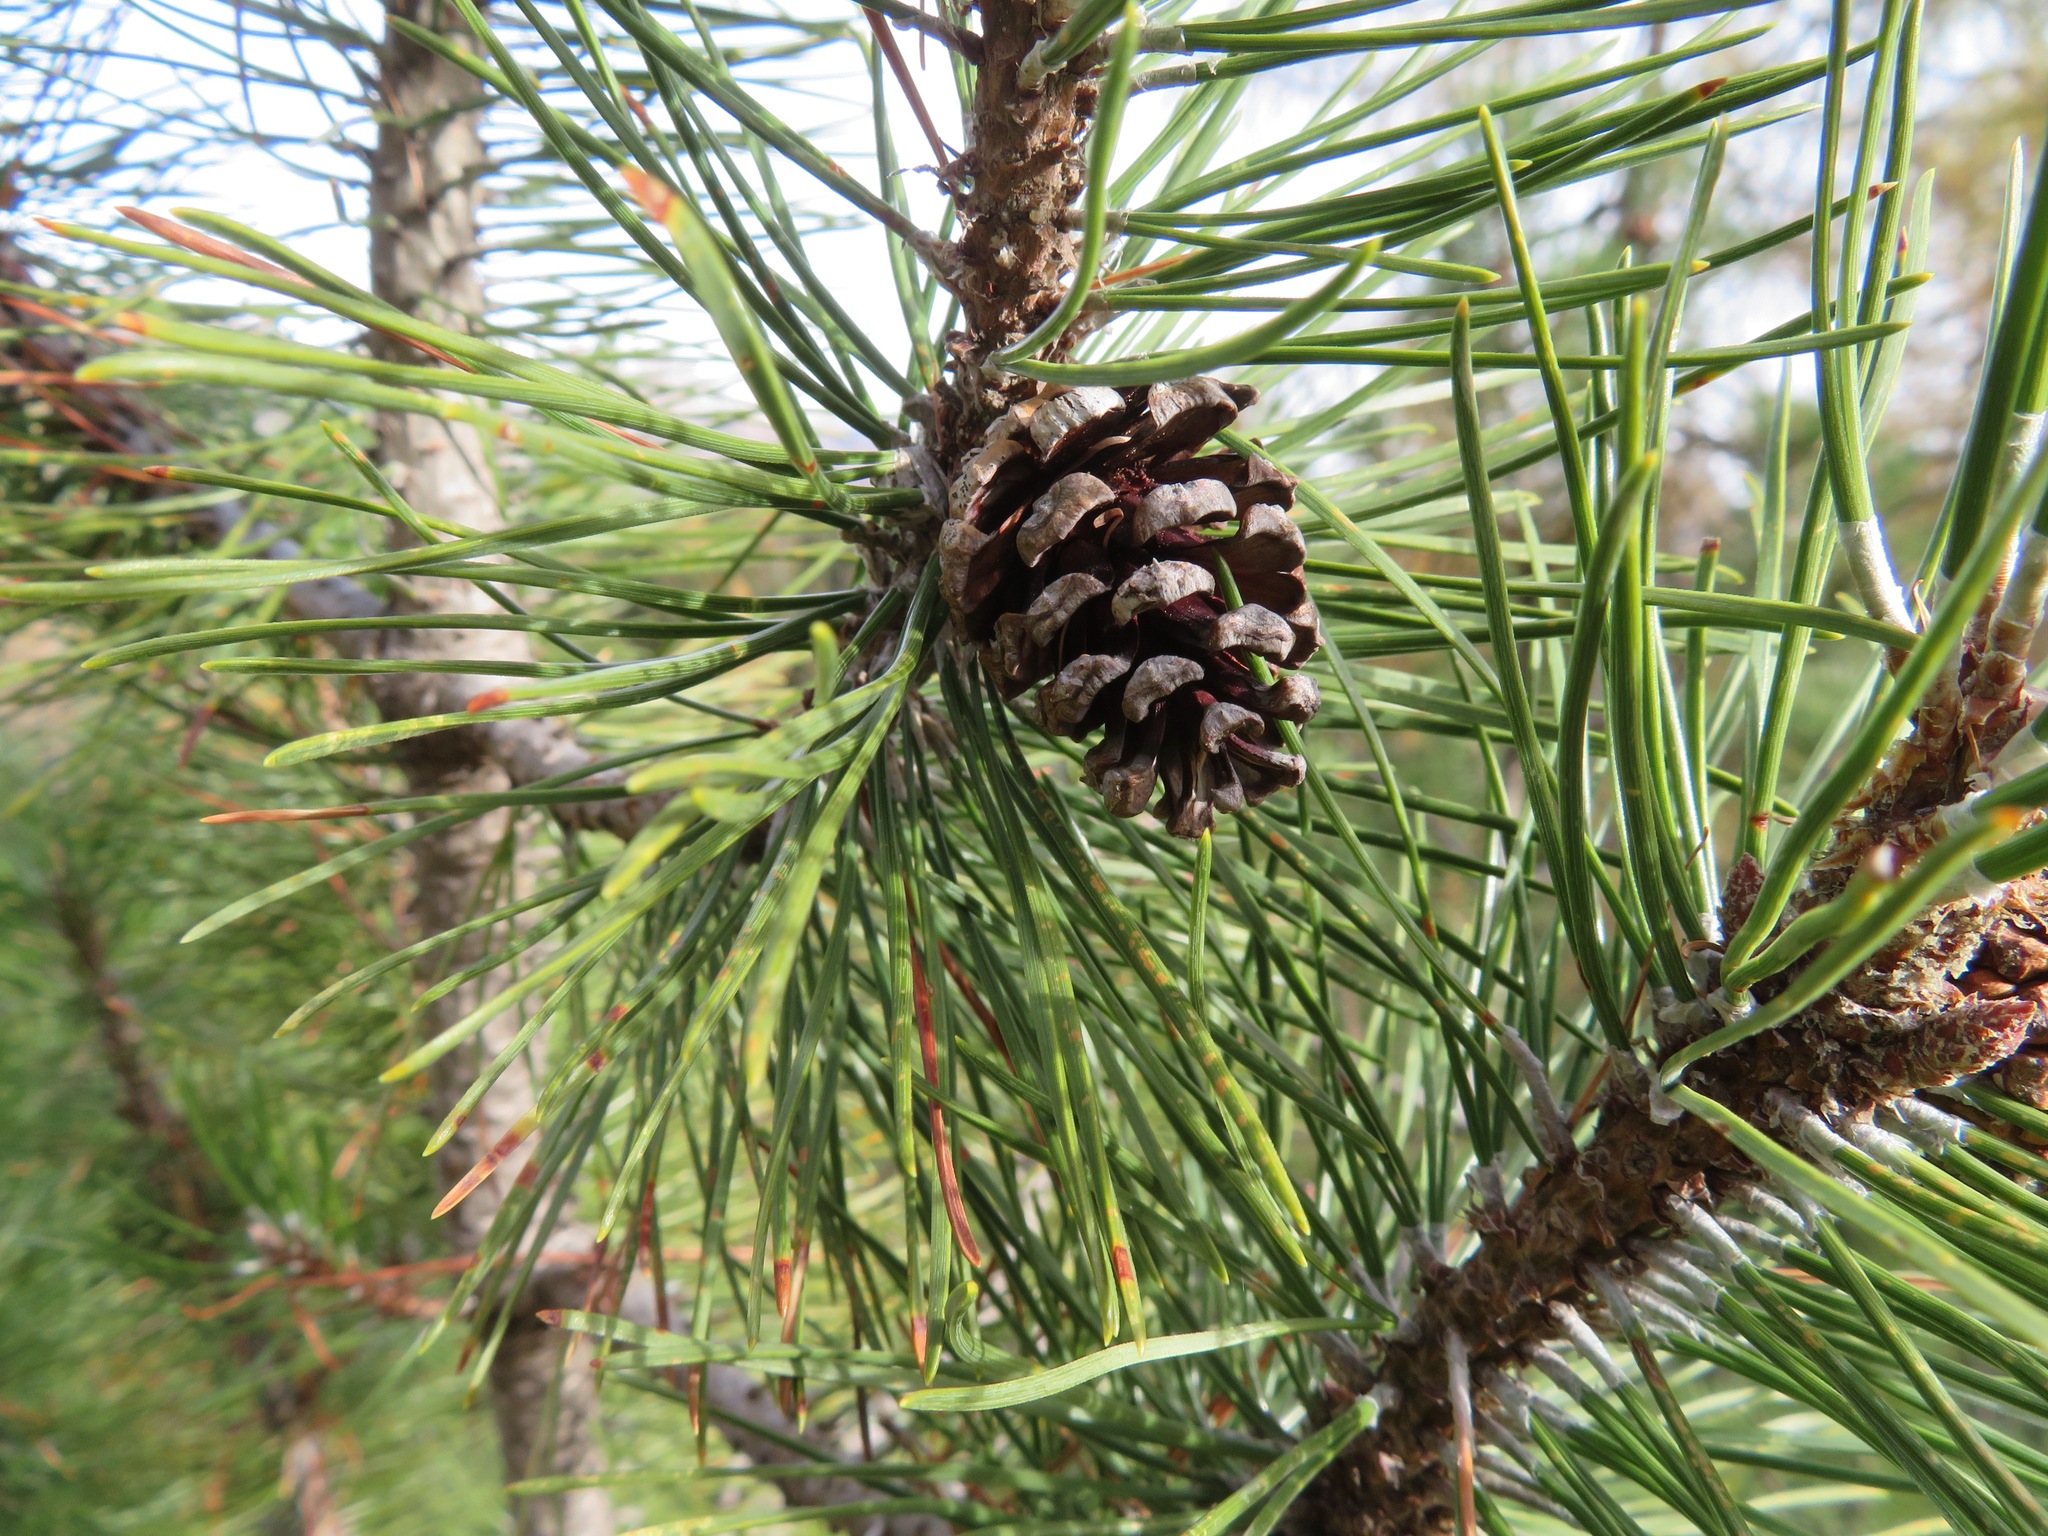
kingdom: Plantae
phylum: Tracheophyta
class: Pinopsida
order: Pinales
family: Pinaceae
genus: Pinus
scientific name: Pinus mugo
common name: Mugo pine
